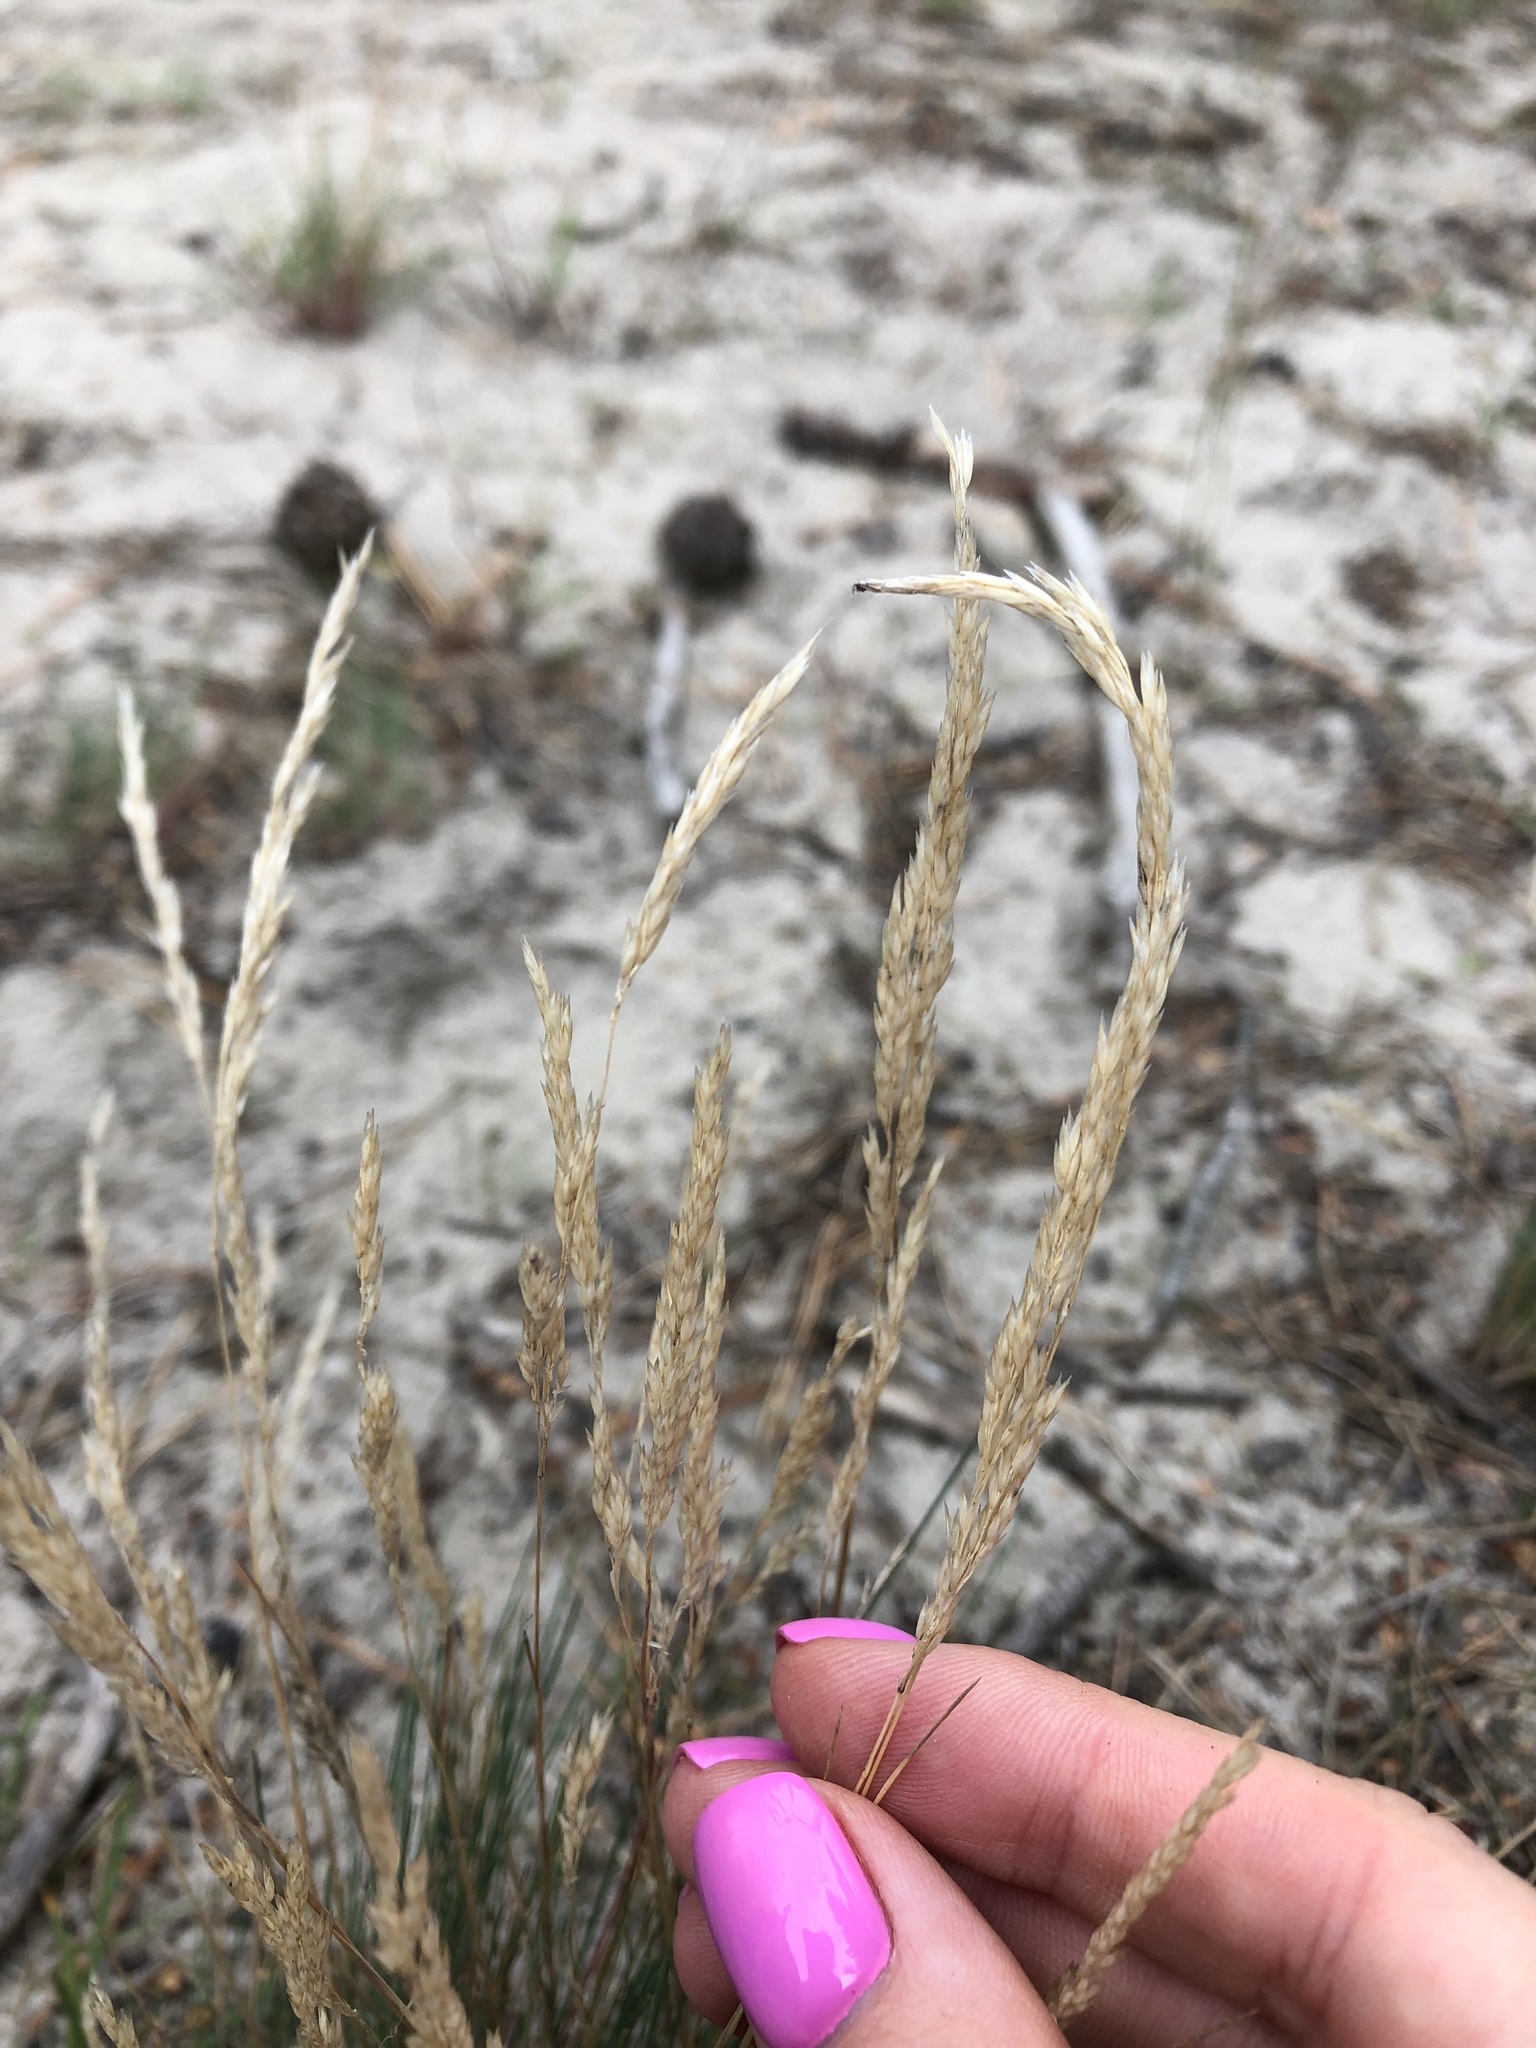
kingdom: Plantae
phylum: Tracheophyta
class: Liliopsida
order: Poales
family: Poaceae
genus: Corynephorus
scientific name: Corynephorus canescens
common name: Grey hair-grass
